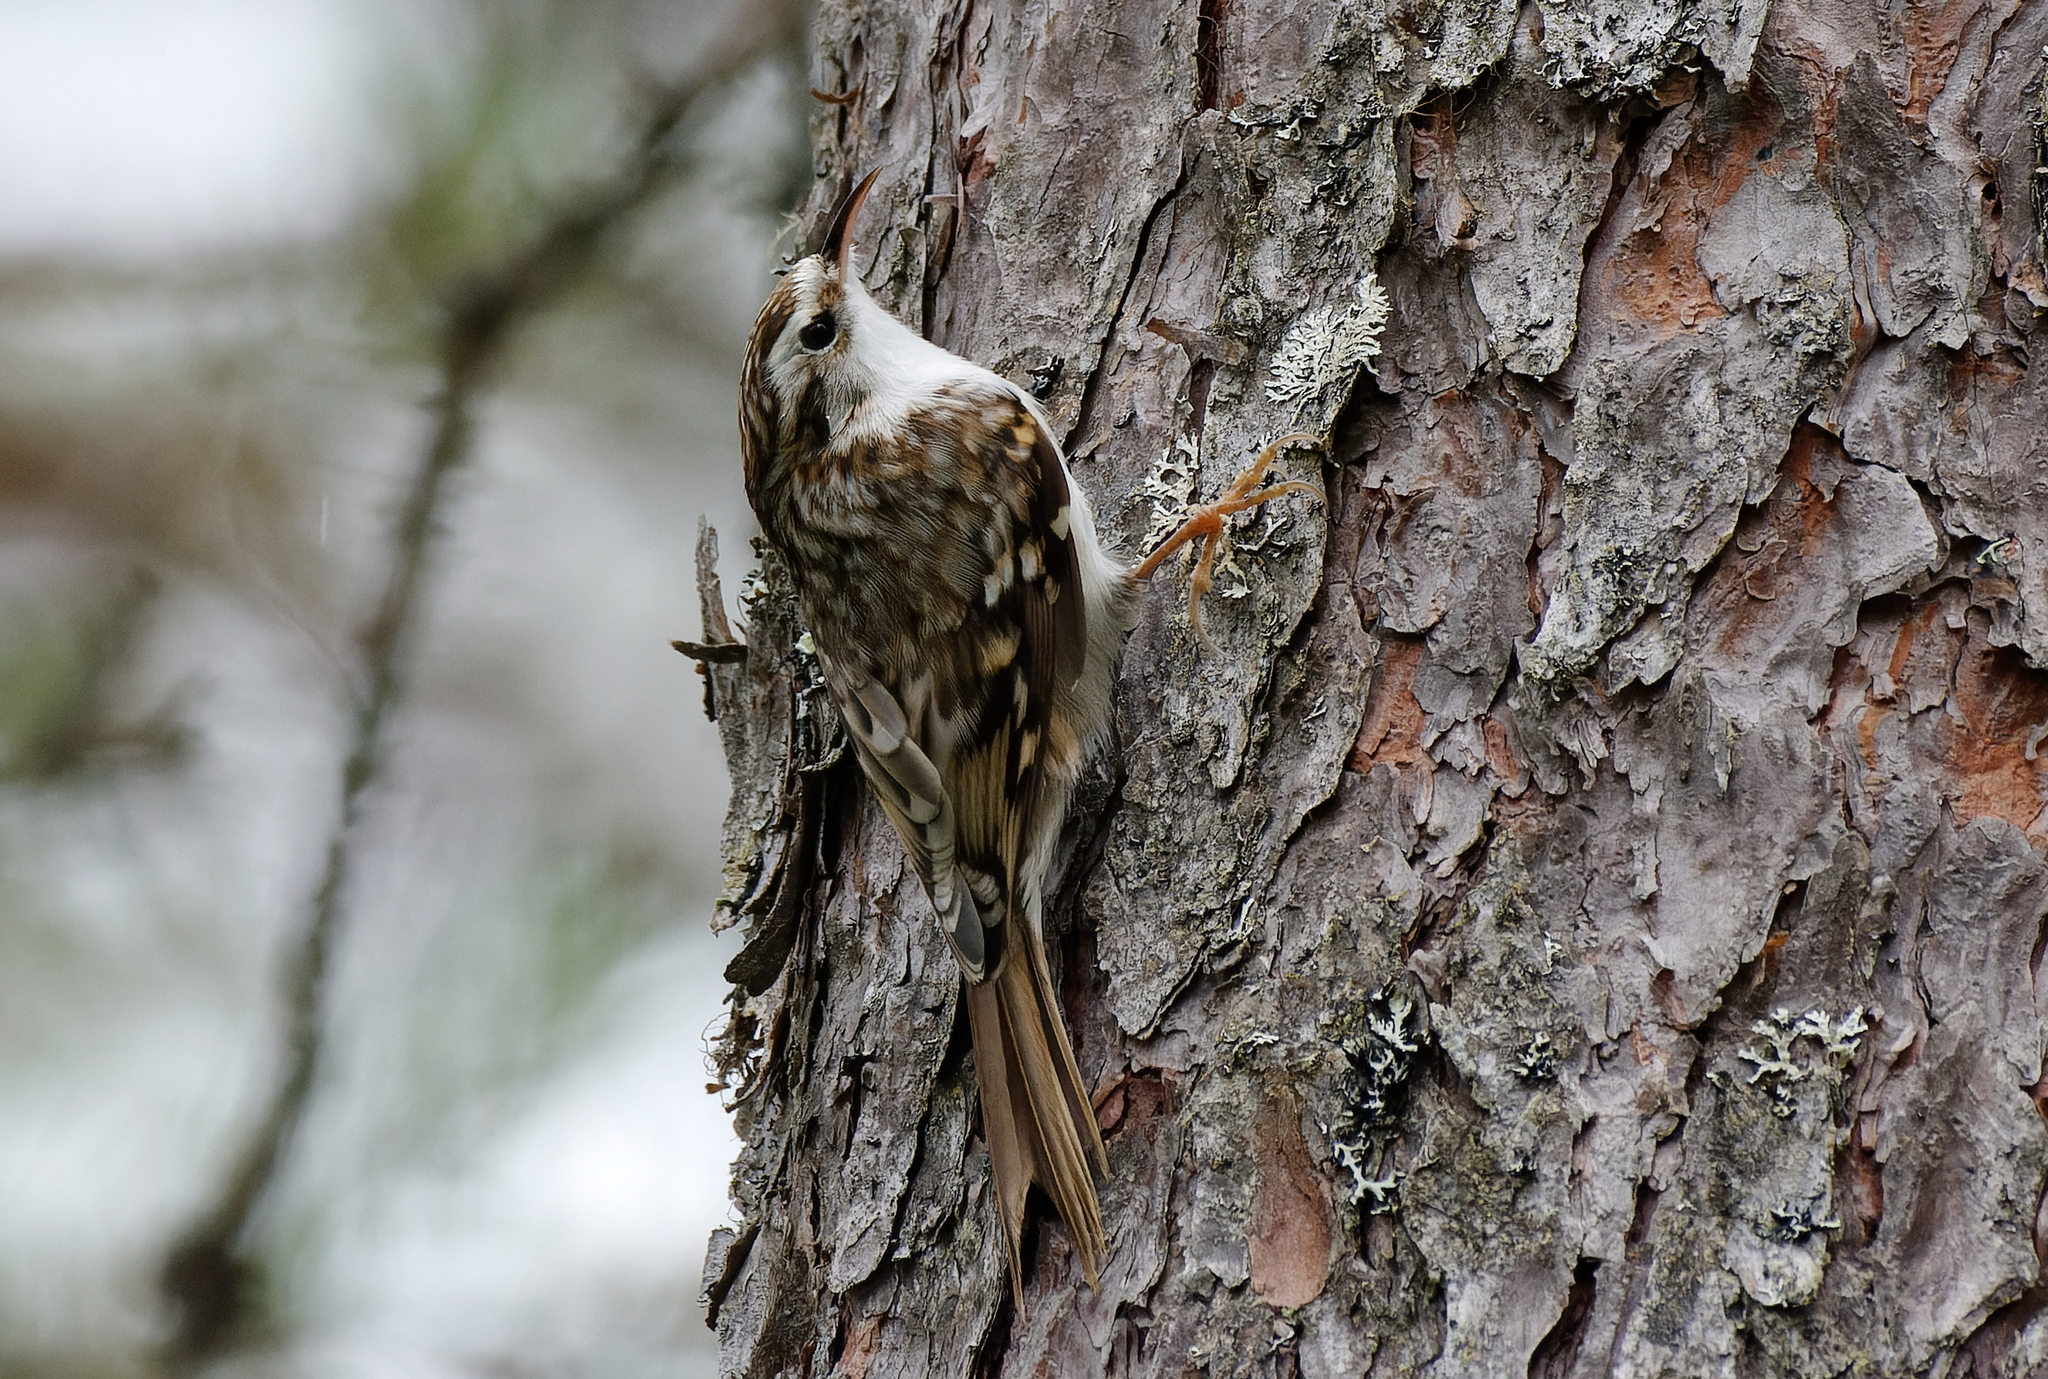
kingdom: Animalia
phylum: Chordata
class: Aves
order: Passeriformes
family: Certhiidae
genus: Certhia
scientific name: Certhia familiaris
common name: Eurasian treecreeper
